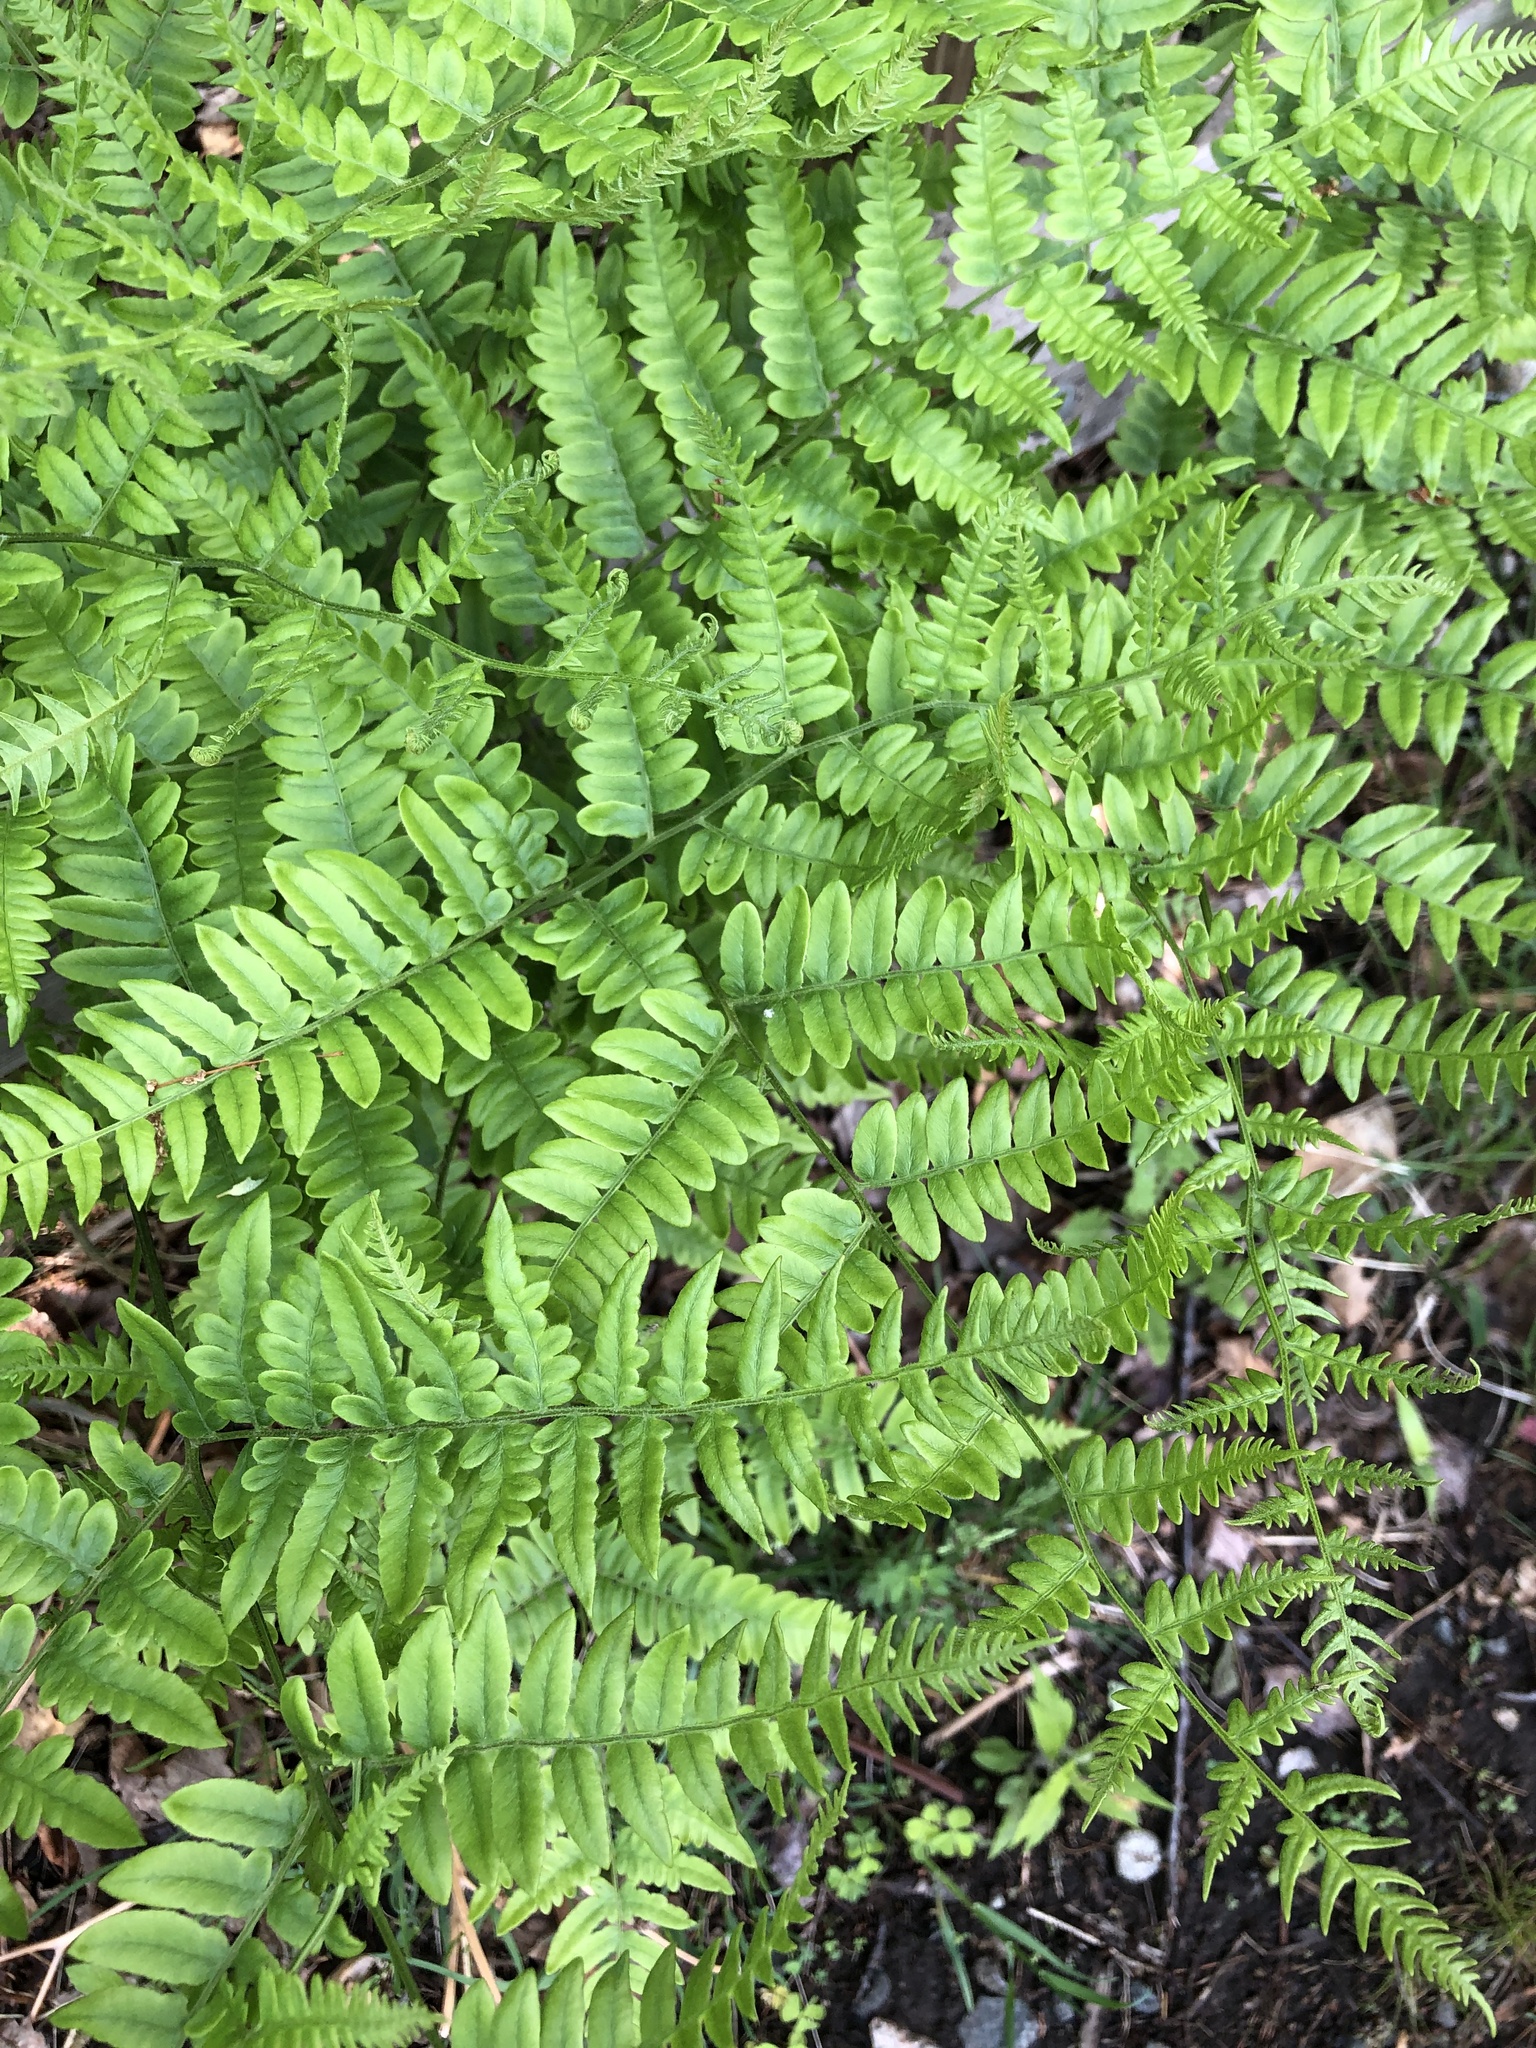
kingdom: Plantae
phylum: Tracheophyta
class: Polypodiopsida
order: Polypodiales
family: Dennstaedtiaceae
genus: Pteridium
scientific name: Pteridium aquilinum
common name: Bracken
